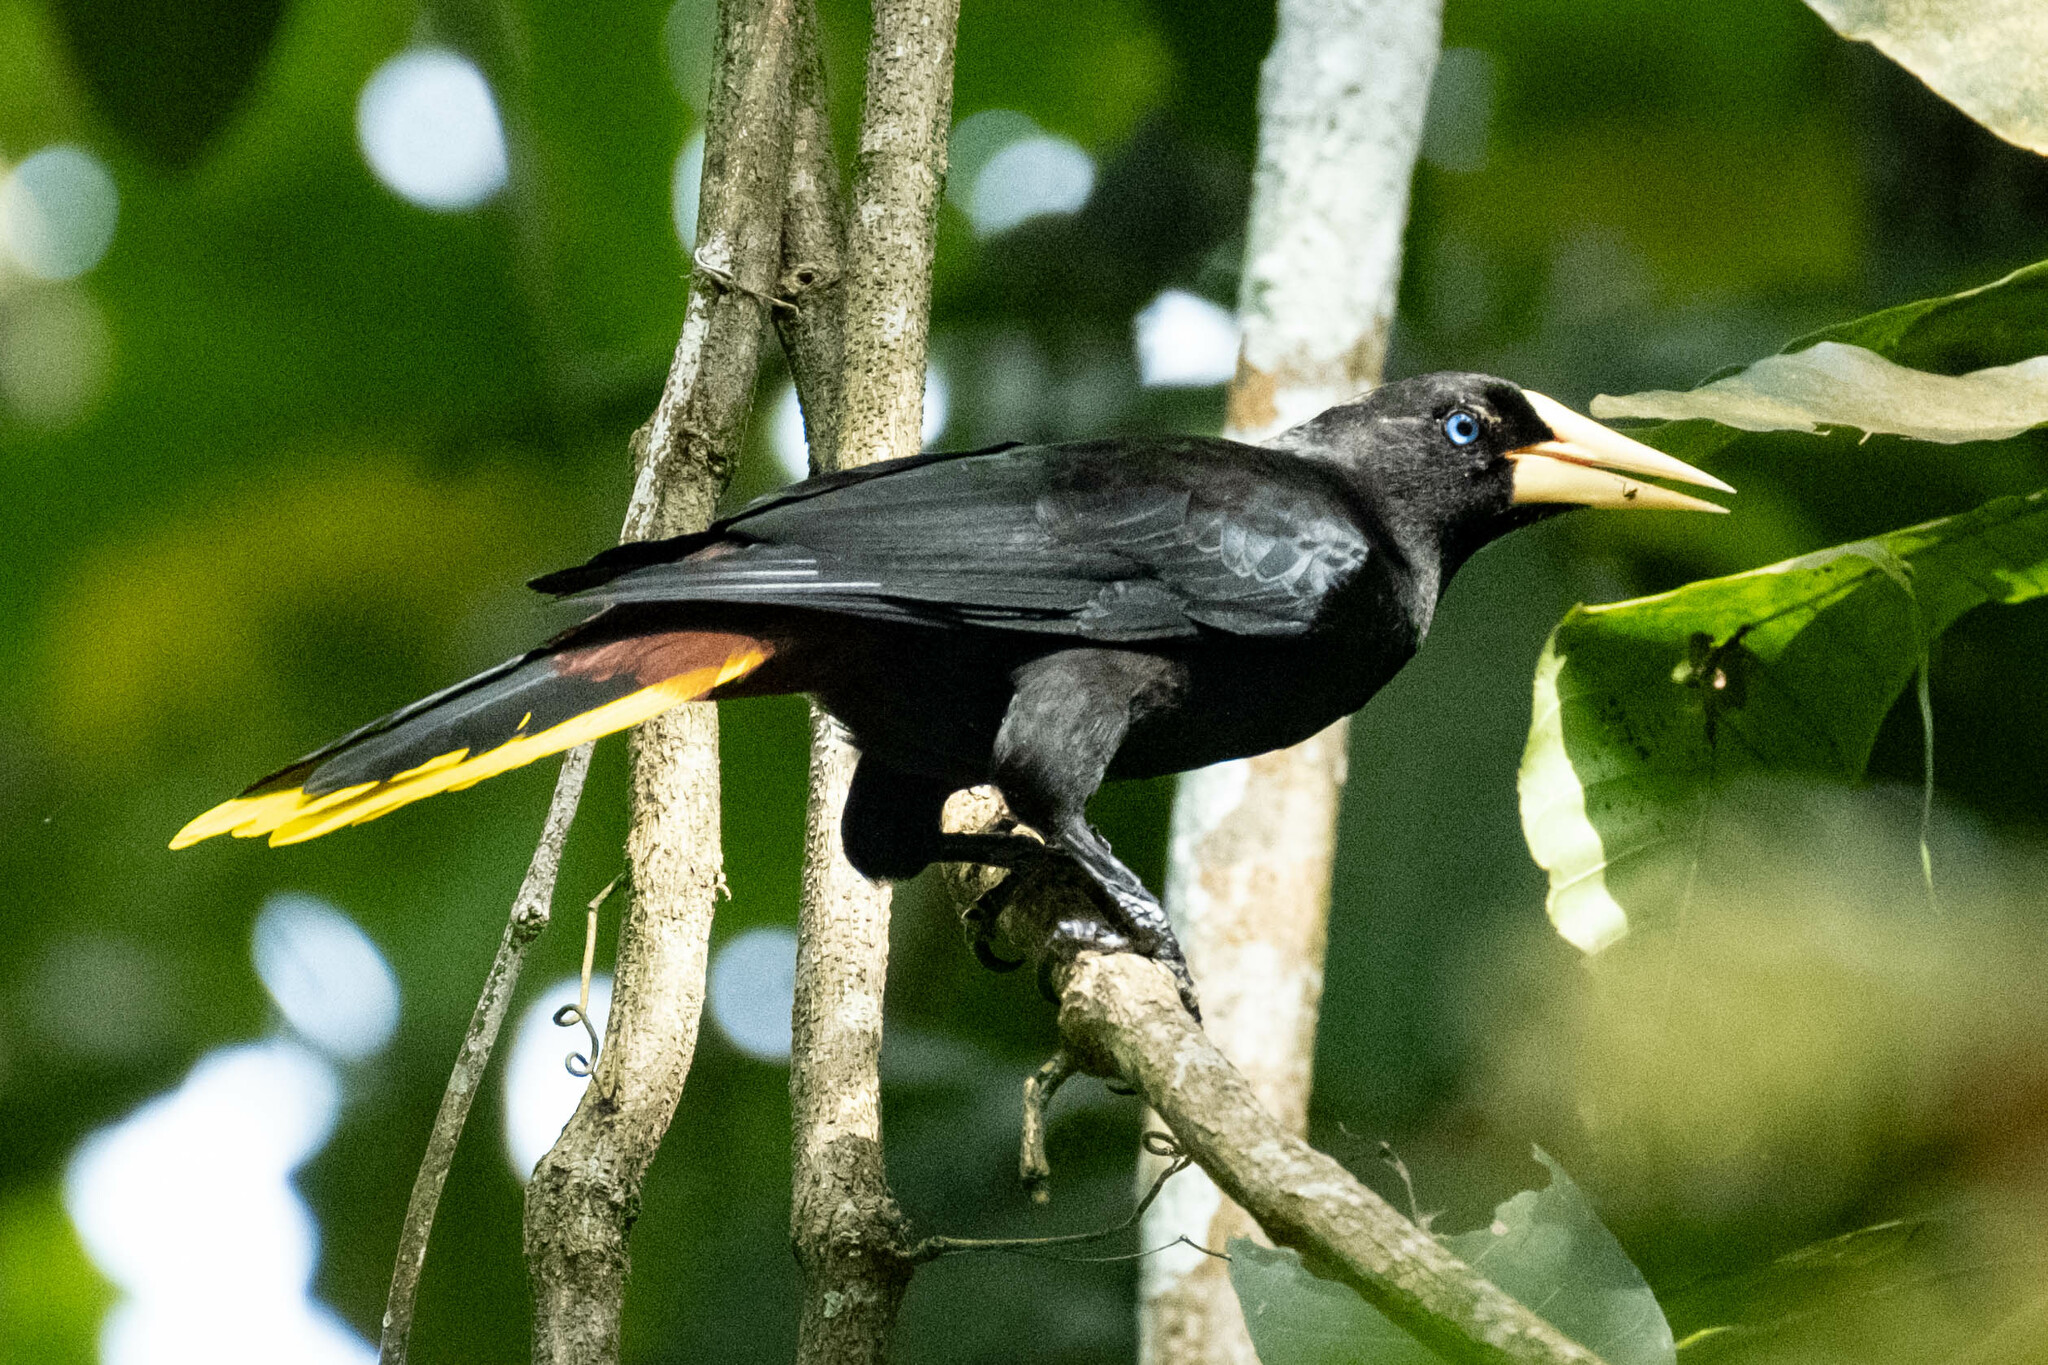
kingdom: Animalia
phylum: Chordata
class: Aves
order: Passeriformes
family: Icteridae
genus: Psarocolius
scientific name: Psarocolius decumanus
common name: Crested oropendola
